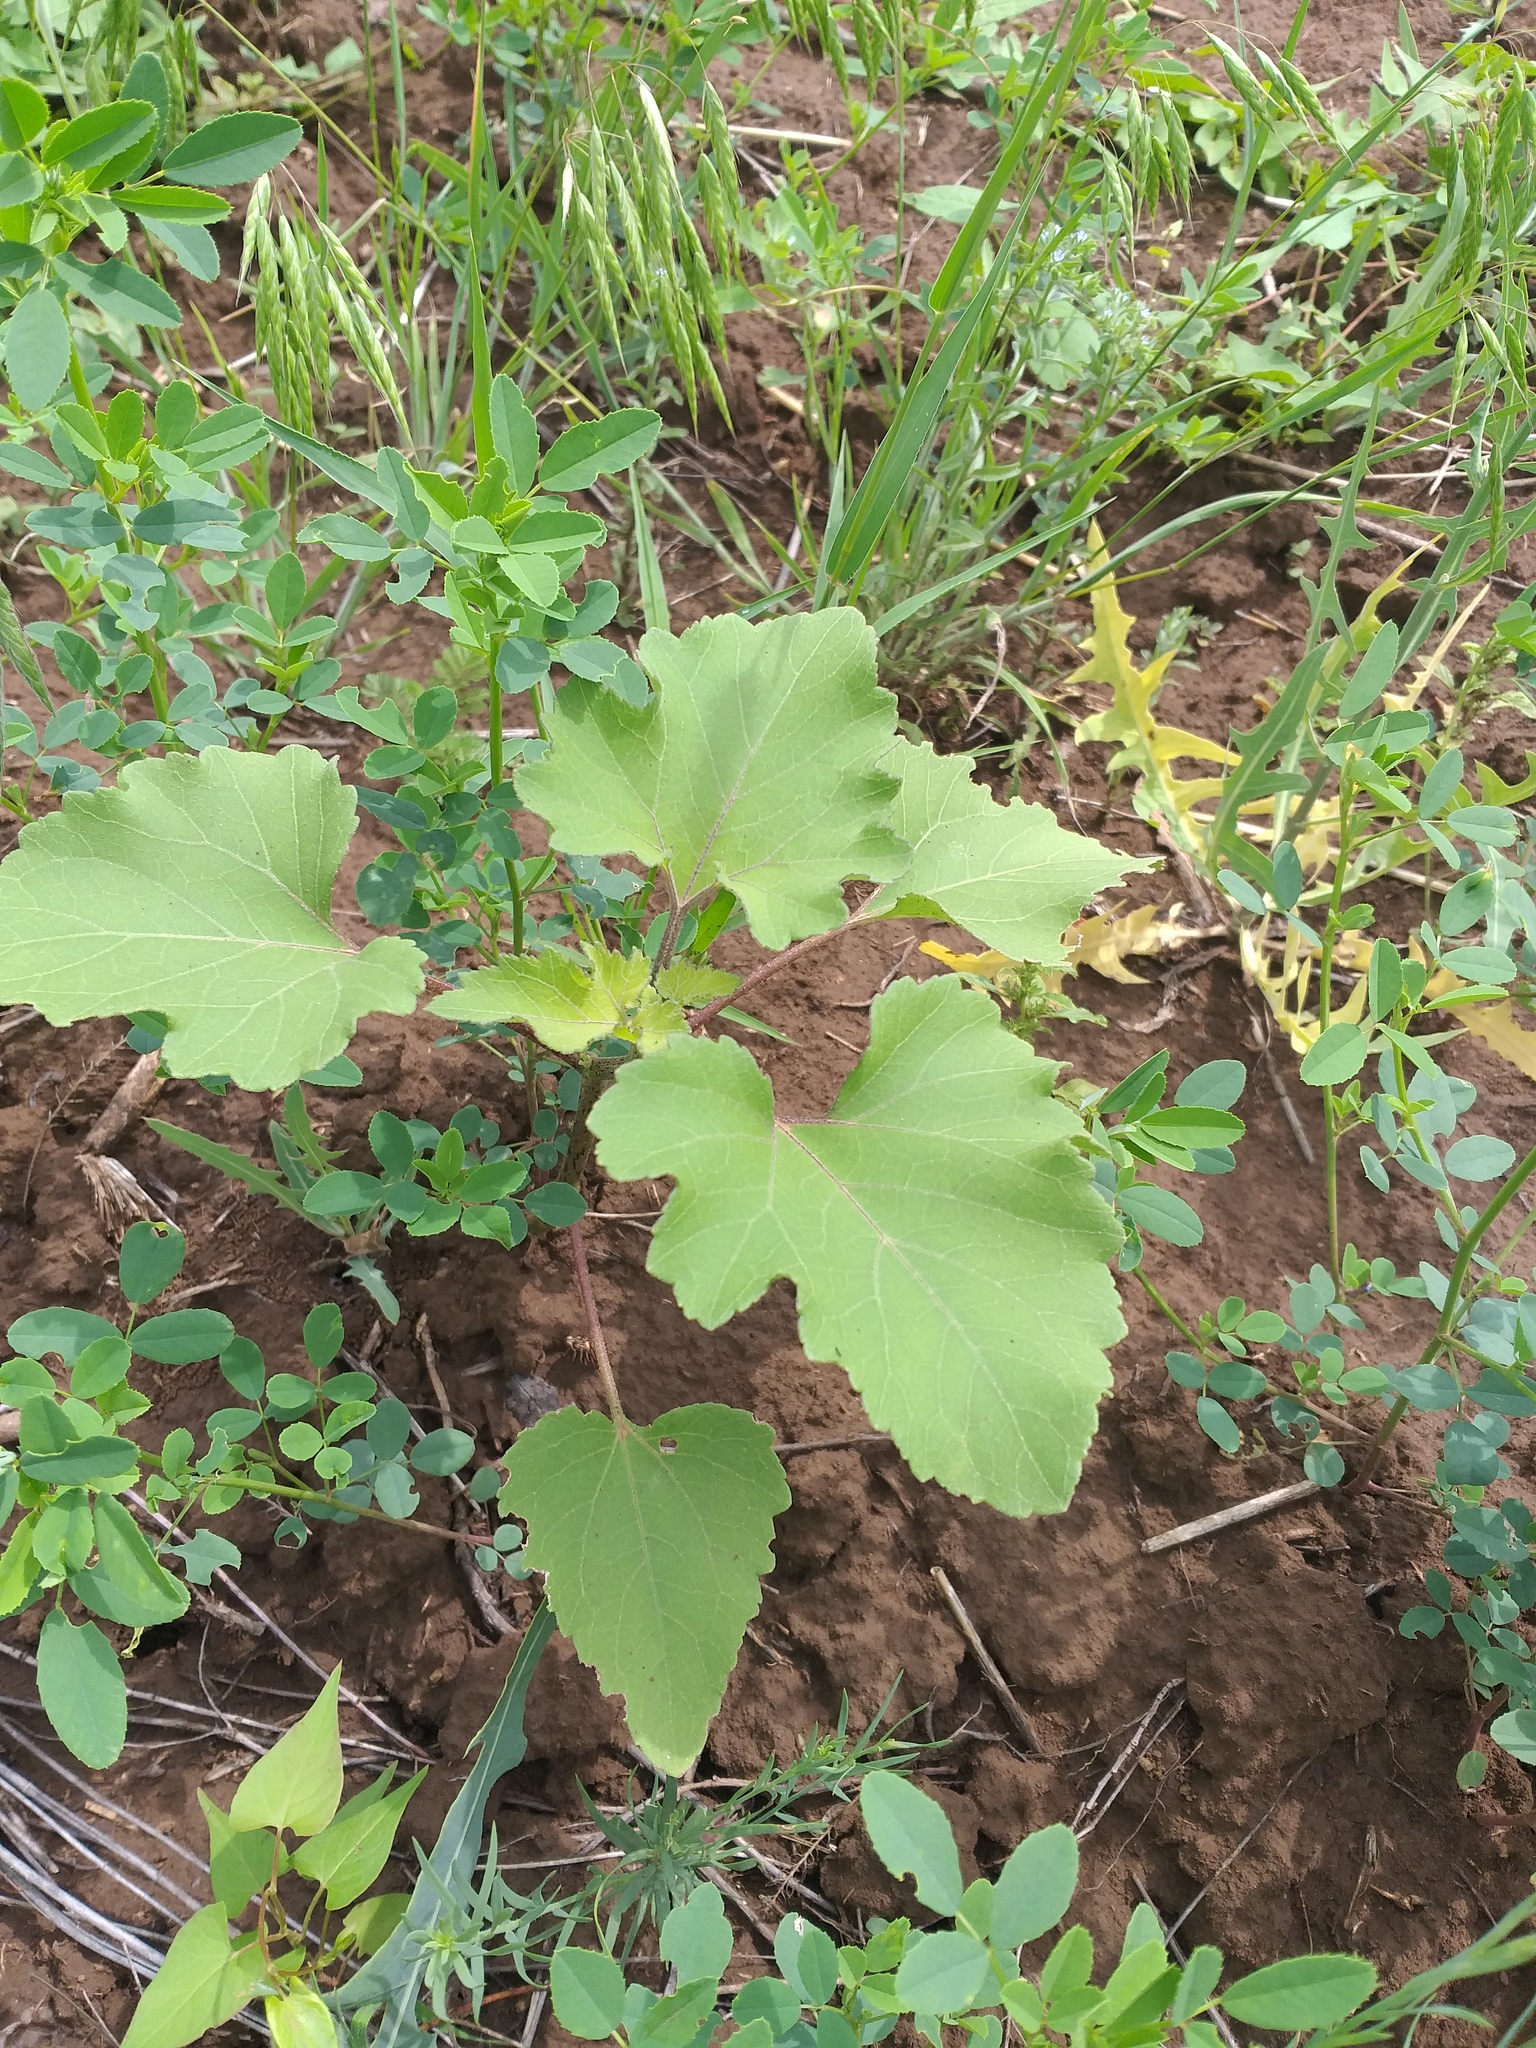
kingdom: Plantae
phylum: Tracheophyta
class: Magnoliopsida
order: Asterales
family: Asteraceae
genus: Xanthium
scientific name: Xanthium orientale
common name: Californian burr
